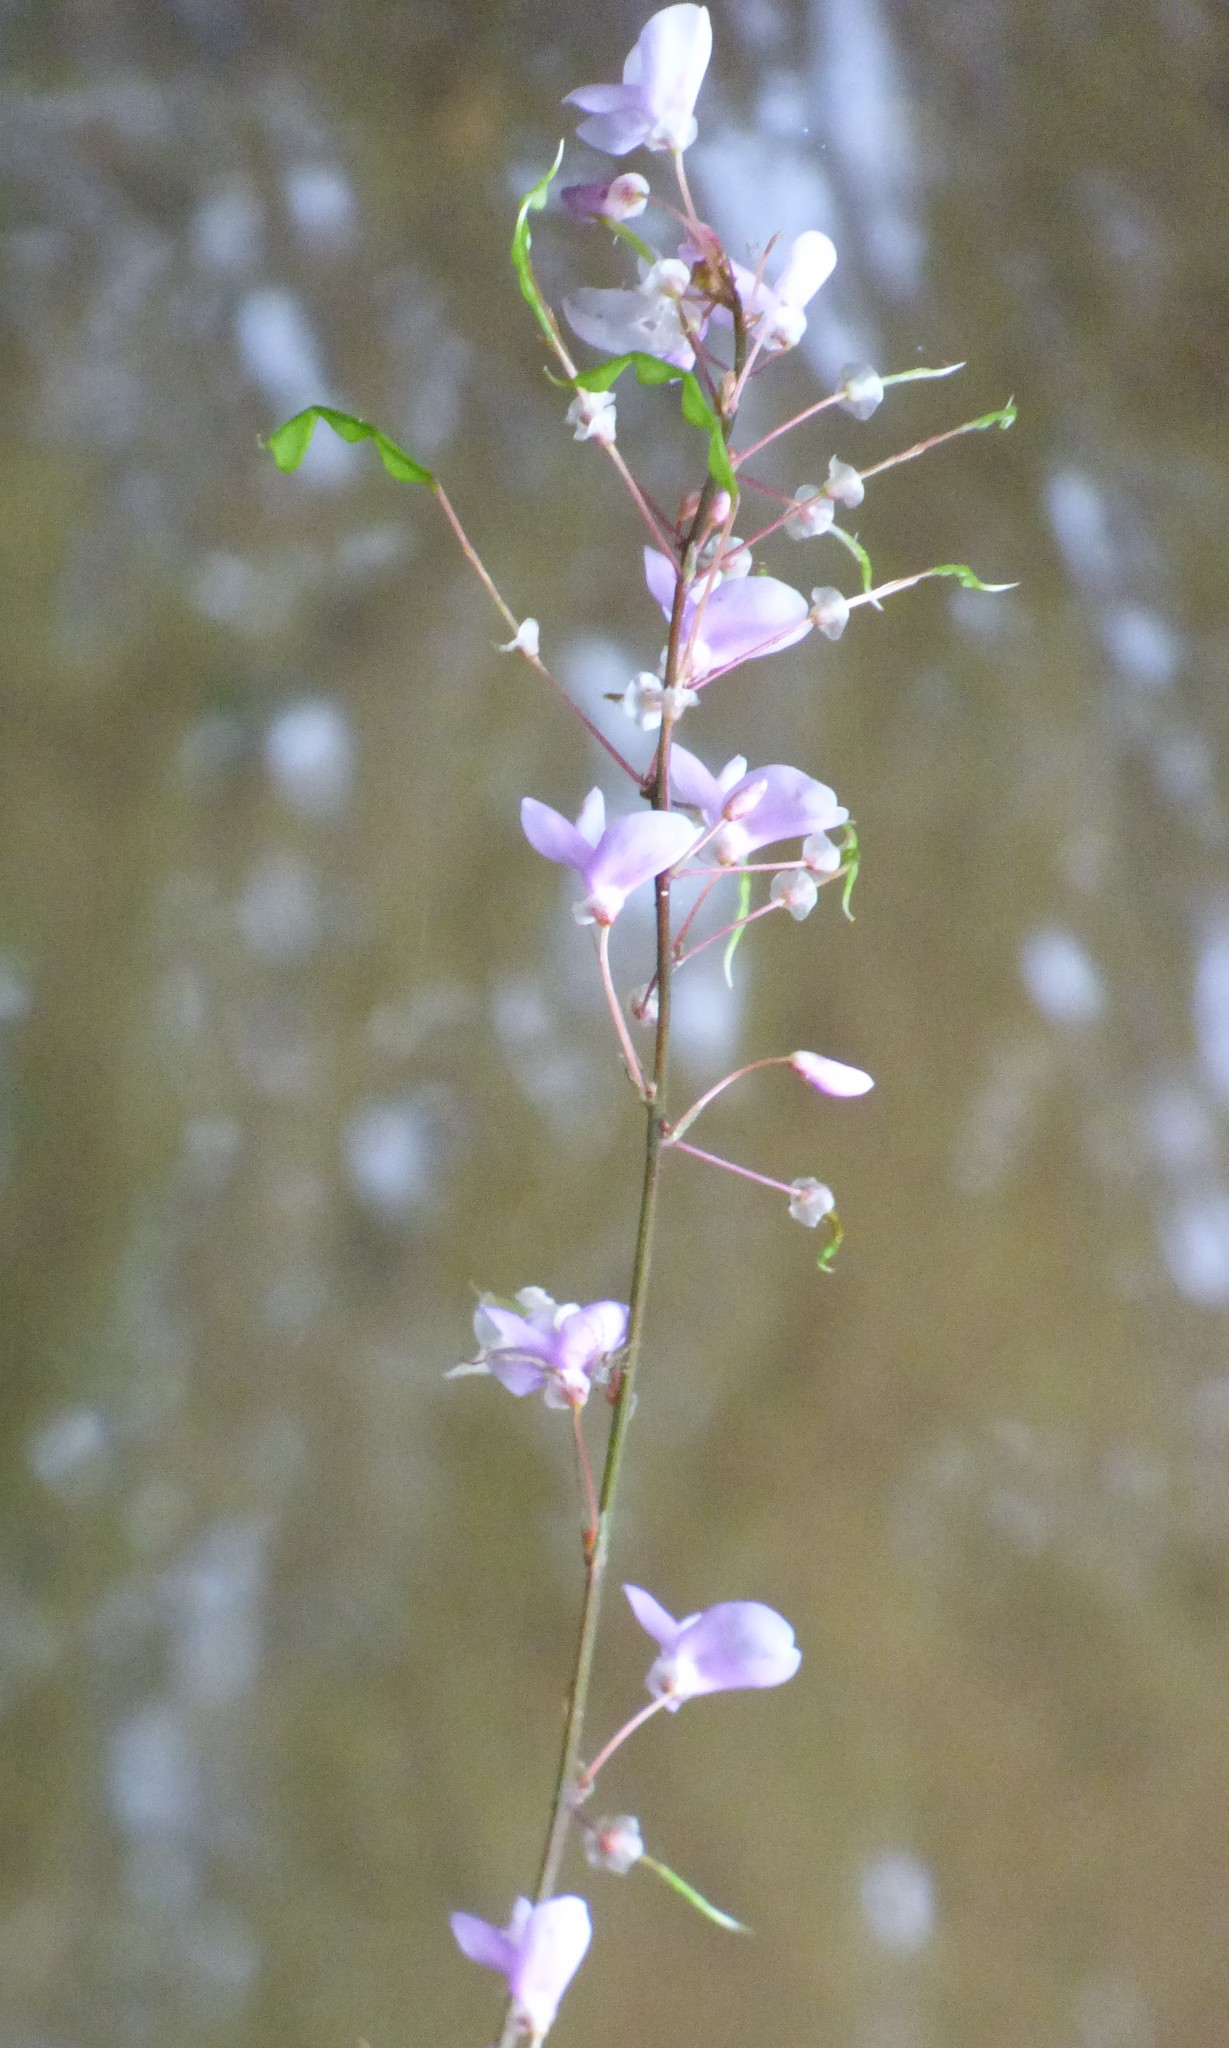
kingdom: Plantae
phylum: Tracheophyta
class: Magnoliopsida
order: Fabales
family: Fabaceae
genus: Hylodesmum
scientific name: Hylodesmum nudiflorum
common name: Bare-stemmed tick-trefoil
